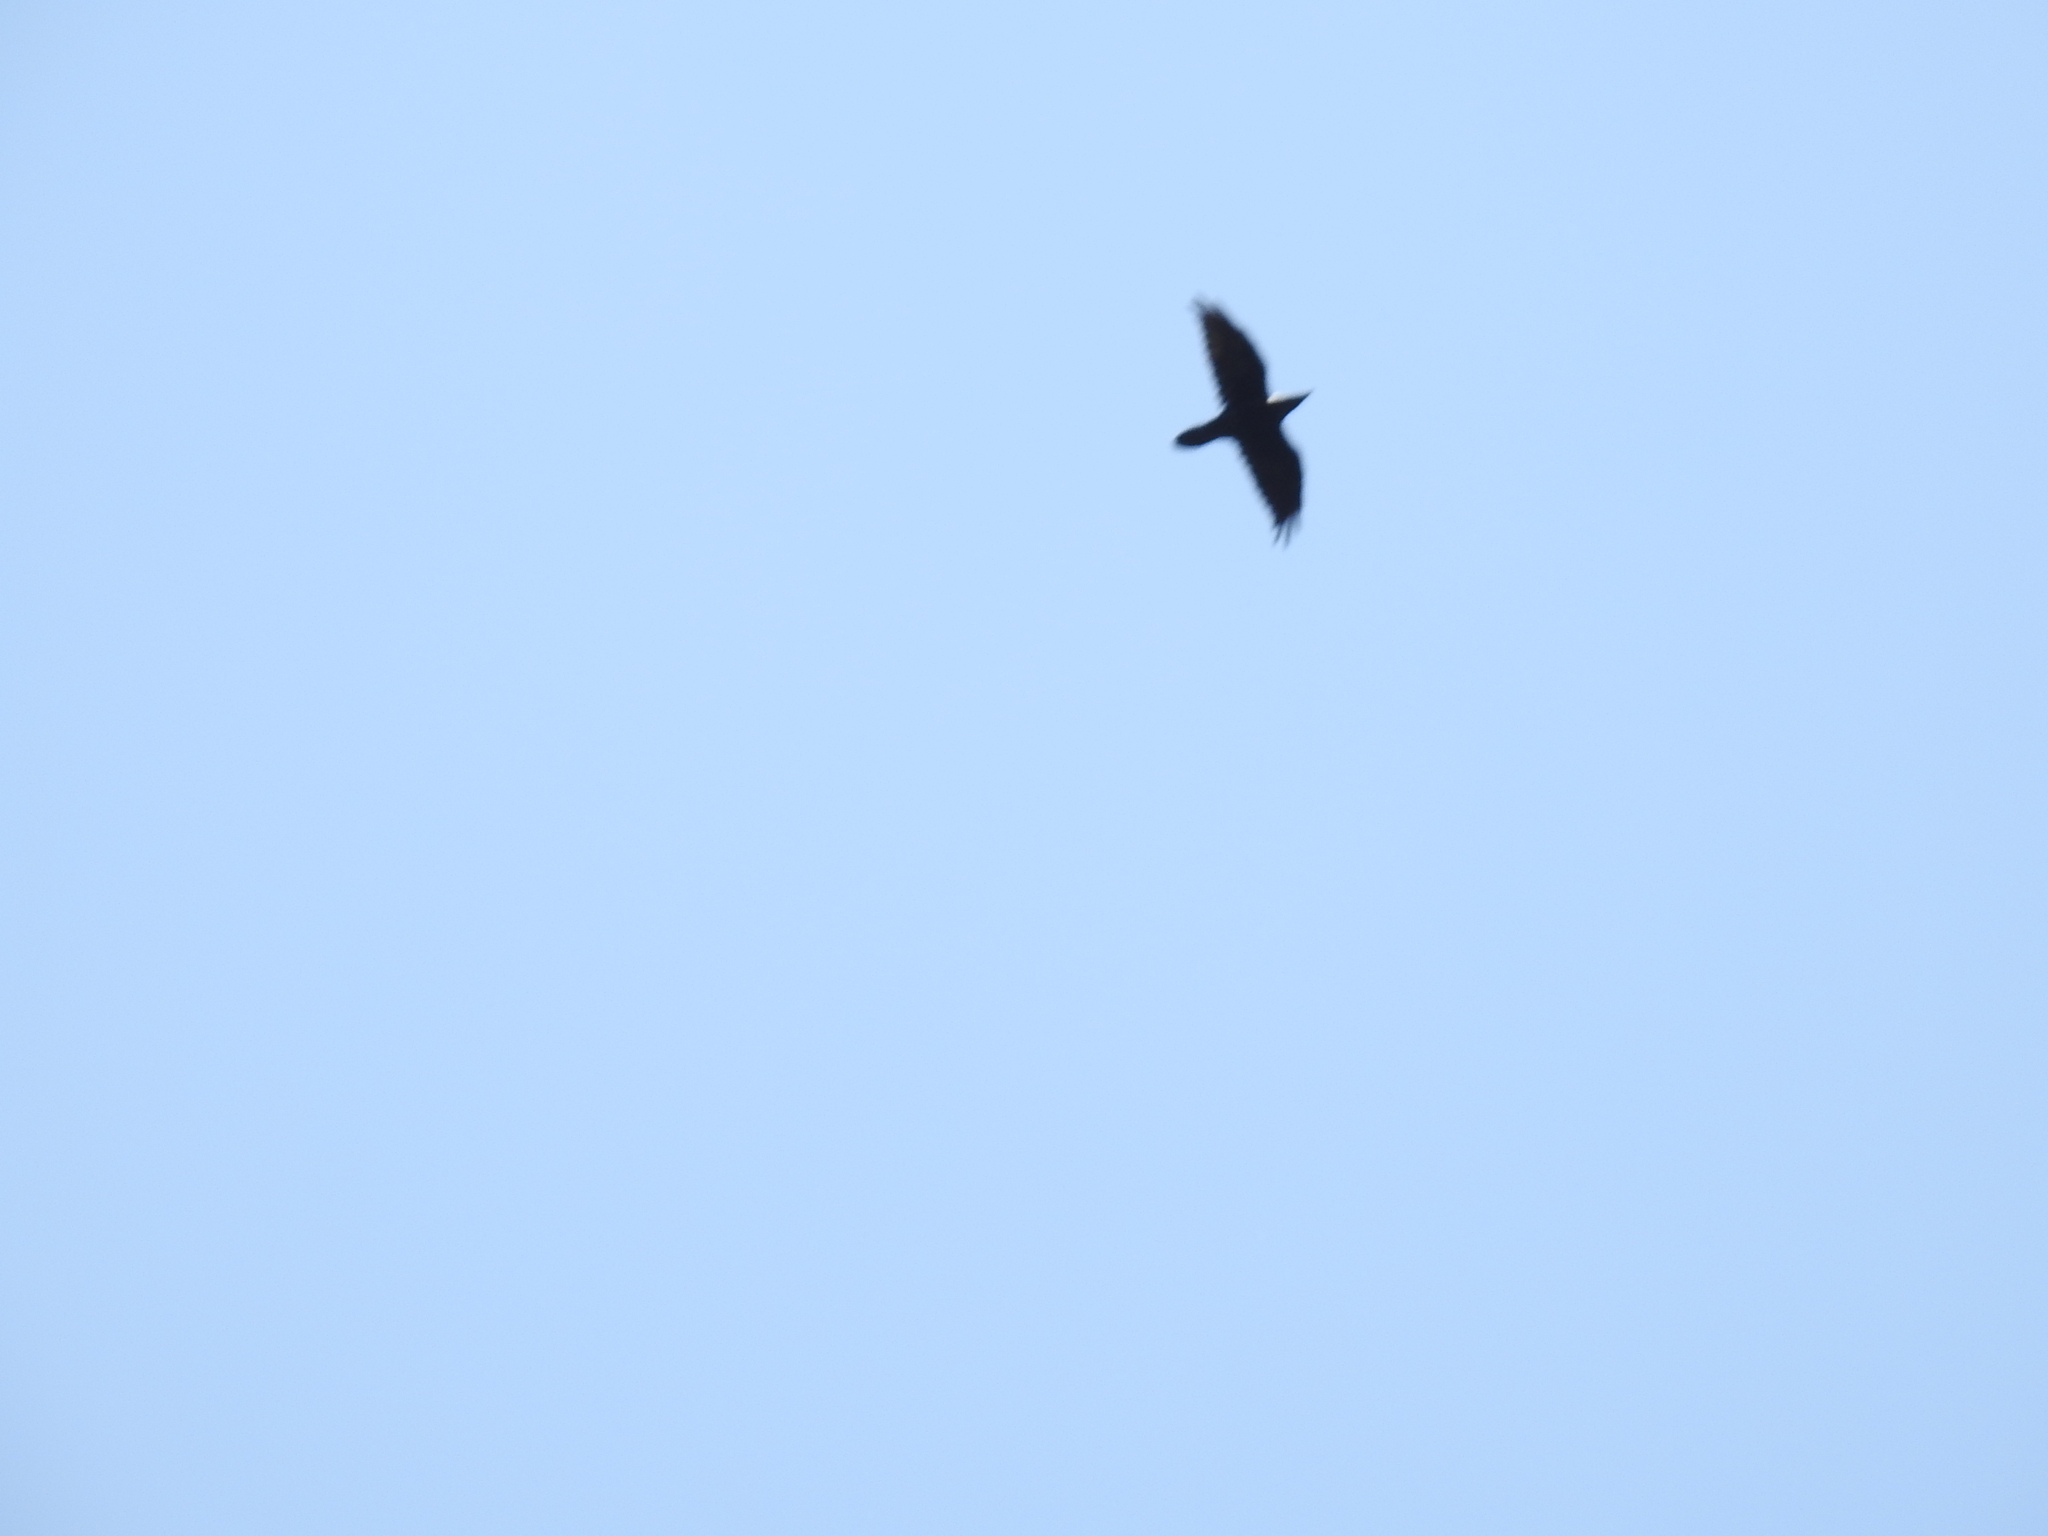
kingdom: Animalia
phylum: Chordata
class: Aves
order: Passeriformes
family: Corvidae
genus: Corvus
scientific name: Corvus corax
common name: Common raven
